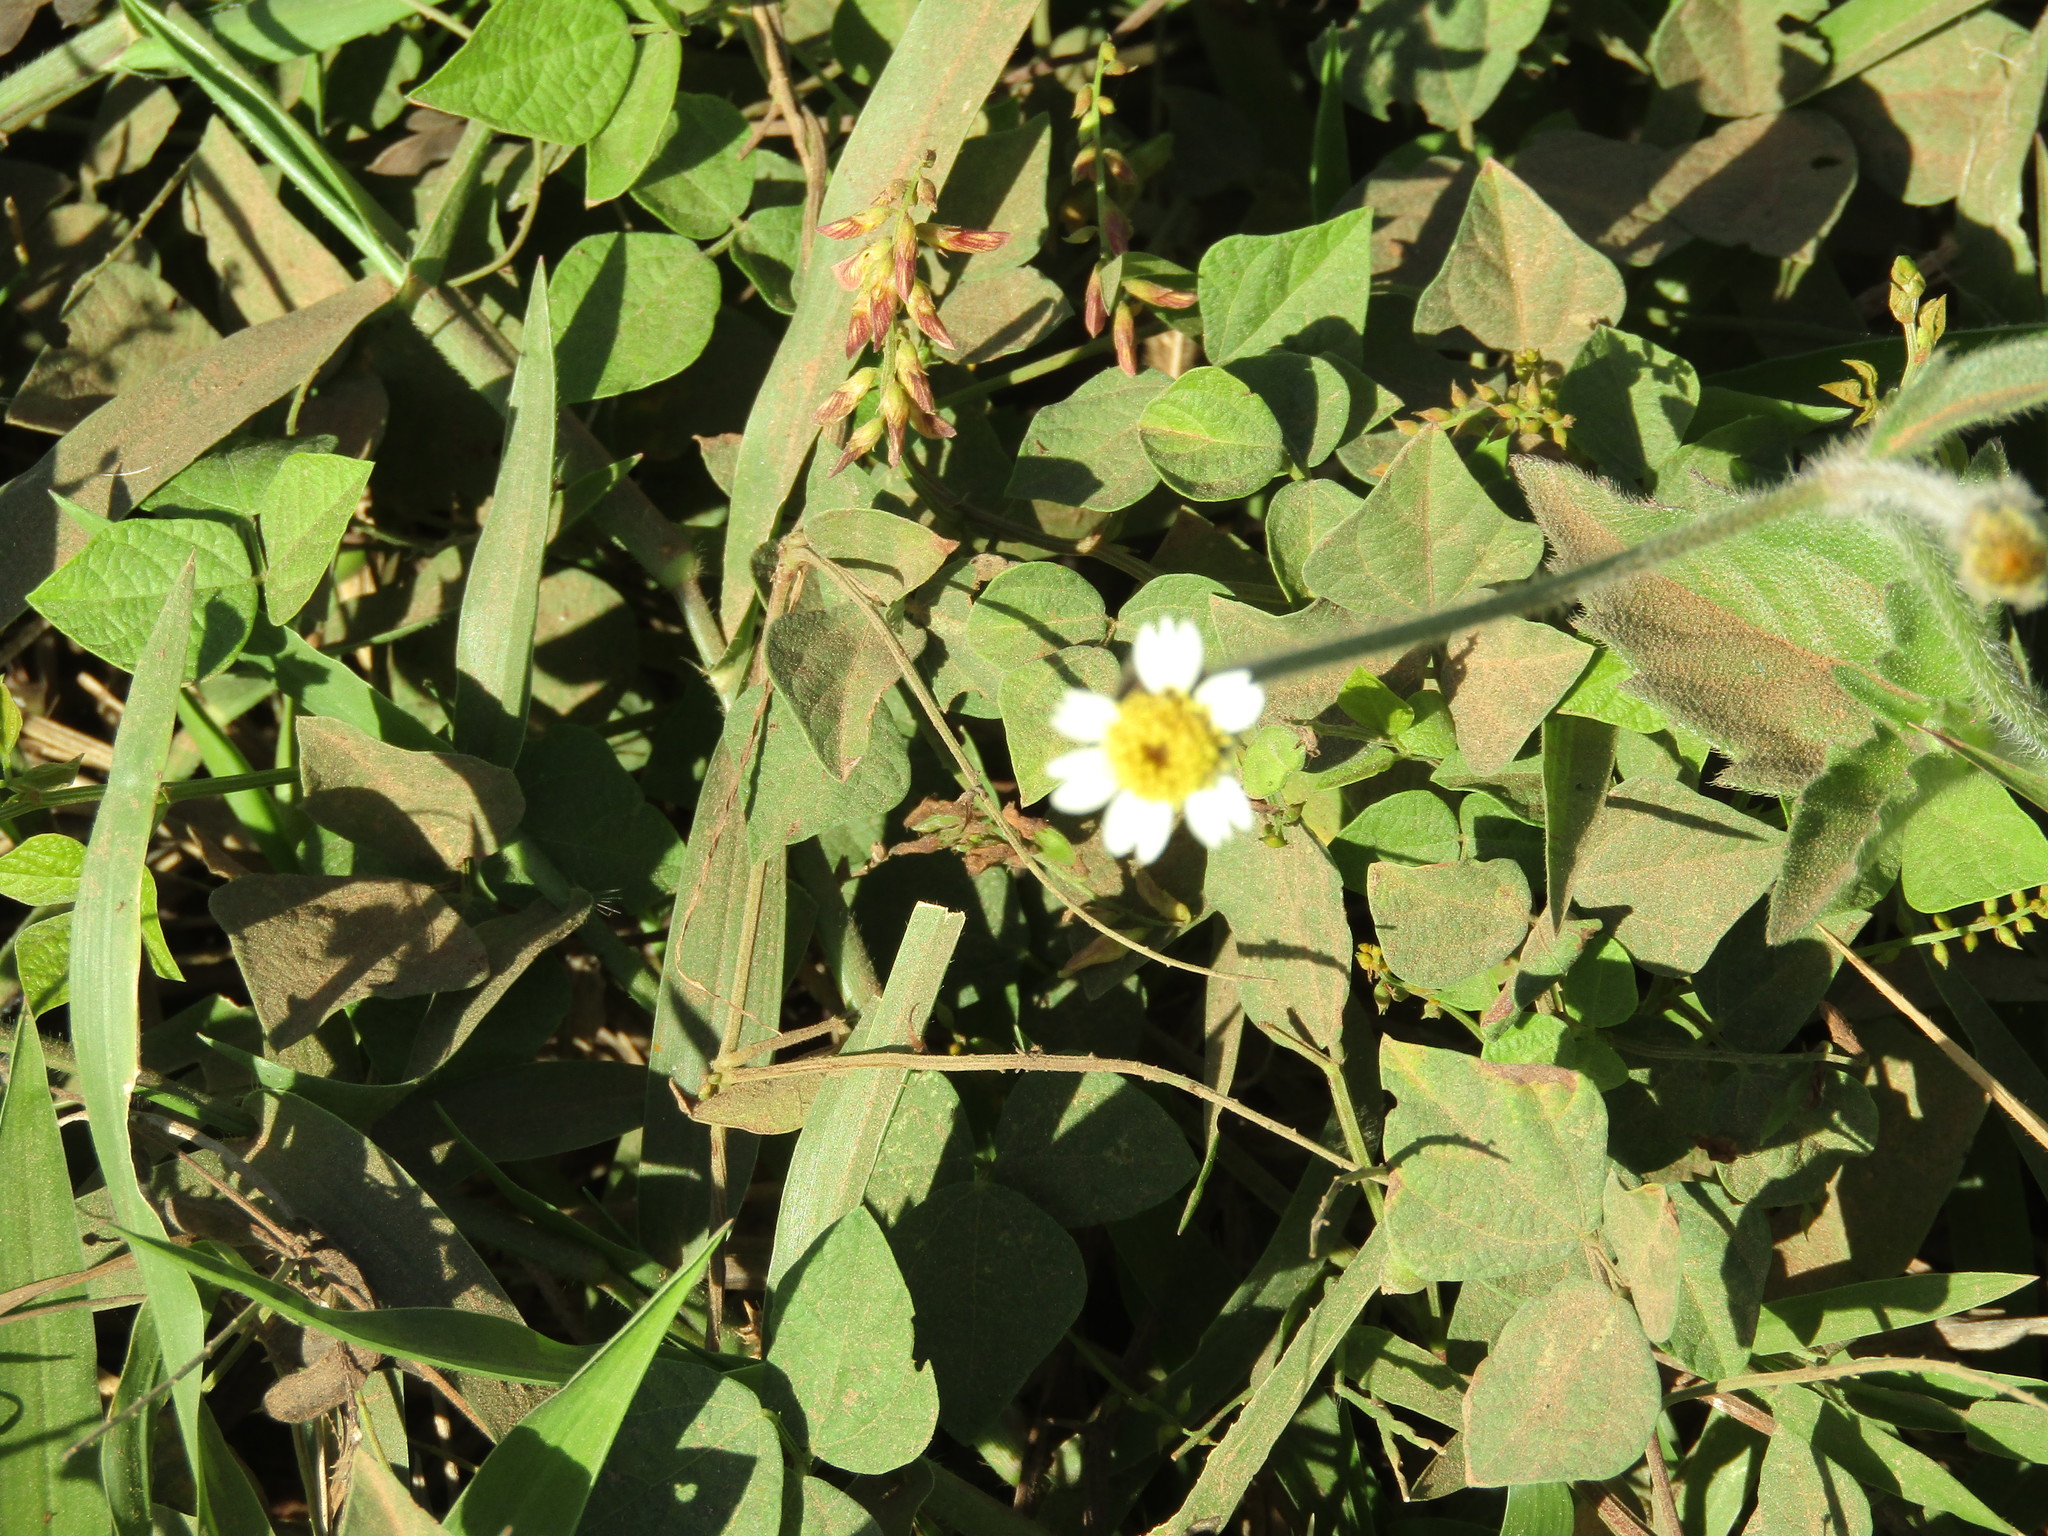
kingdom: Plantae
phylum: Tracheophyta
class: Magnoliopsida
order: Asterales
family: Asteraceae
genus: Tridax
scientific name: Tridax procumbens
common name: Coatbuttons
